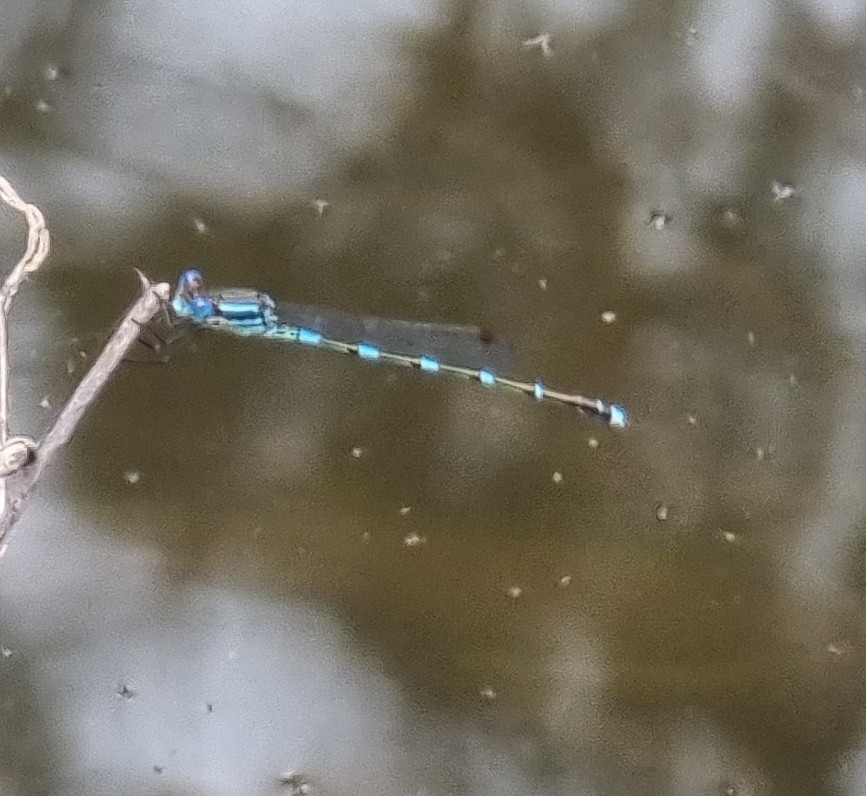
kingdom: Animalia
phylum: Arthropoda
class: Insecta
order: Odonata
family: Lestidae
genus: Austrolestes
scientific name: Austrolestes leda
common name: Wandering ringtail
